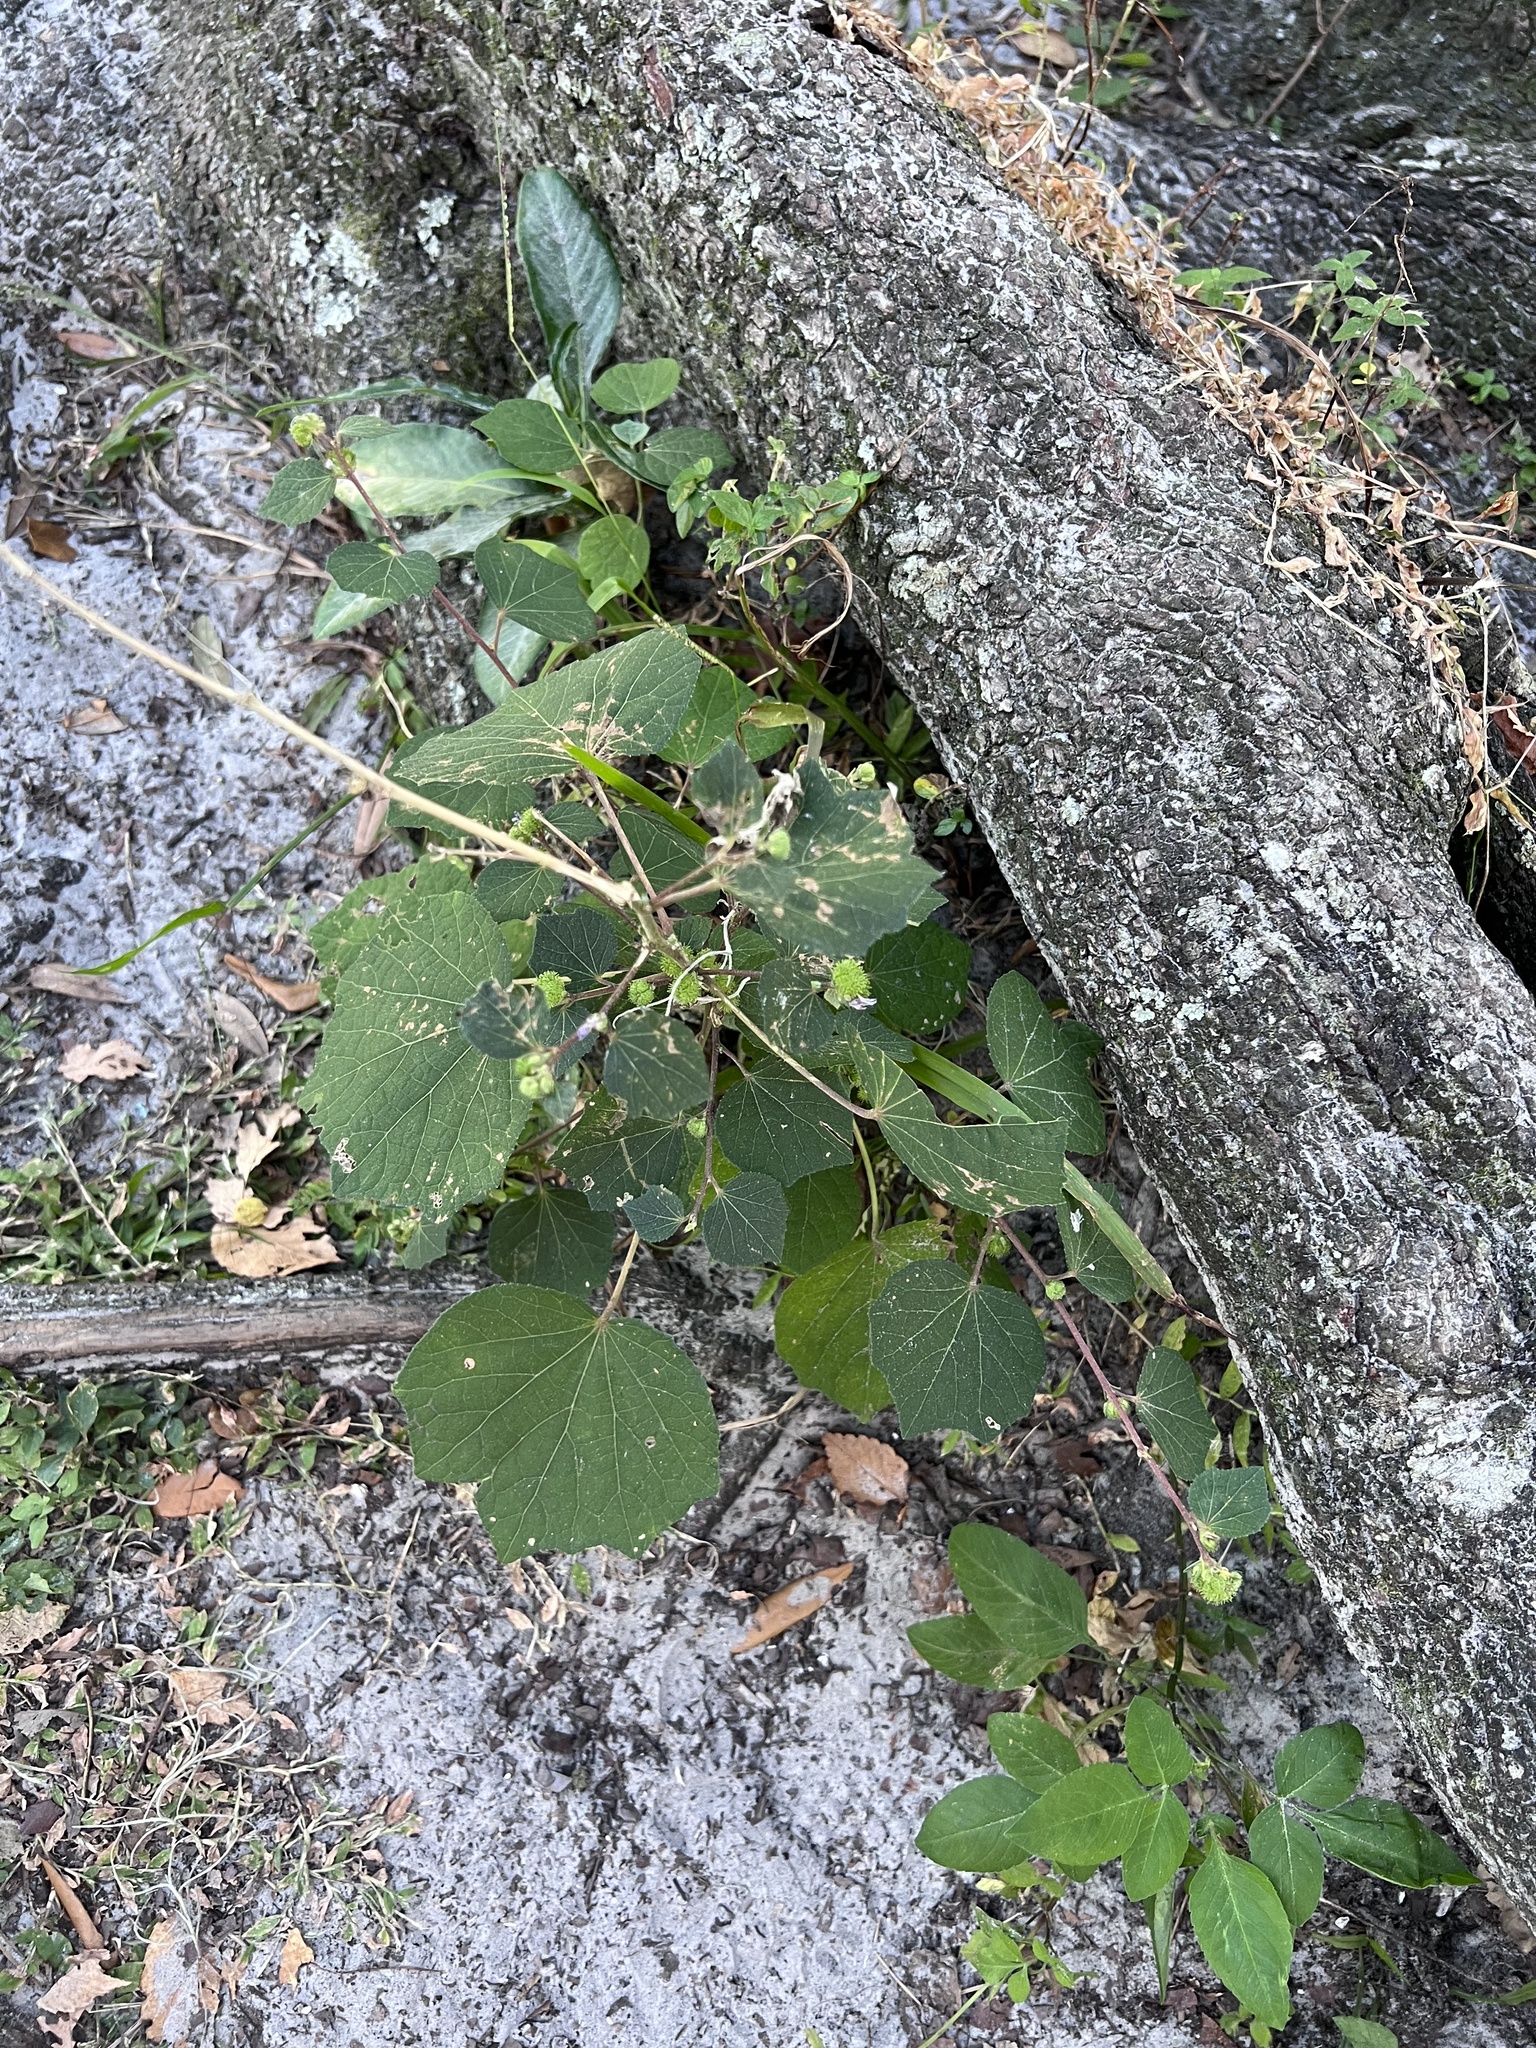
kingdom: Plantae
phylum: Tracheophyta
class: Magnoliopsida
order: Malvales
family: Malvaceae
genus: Urena
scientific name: Urena lobata
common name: Caesarweed
